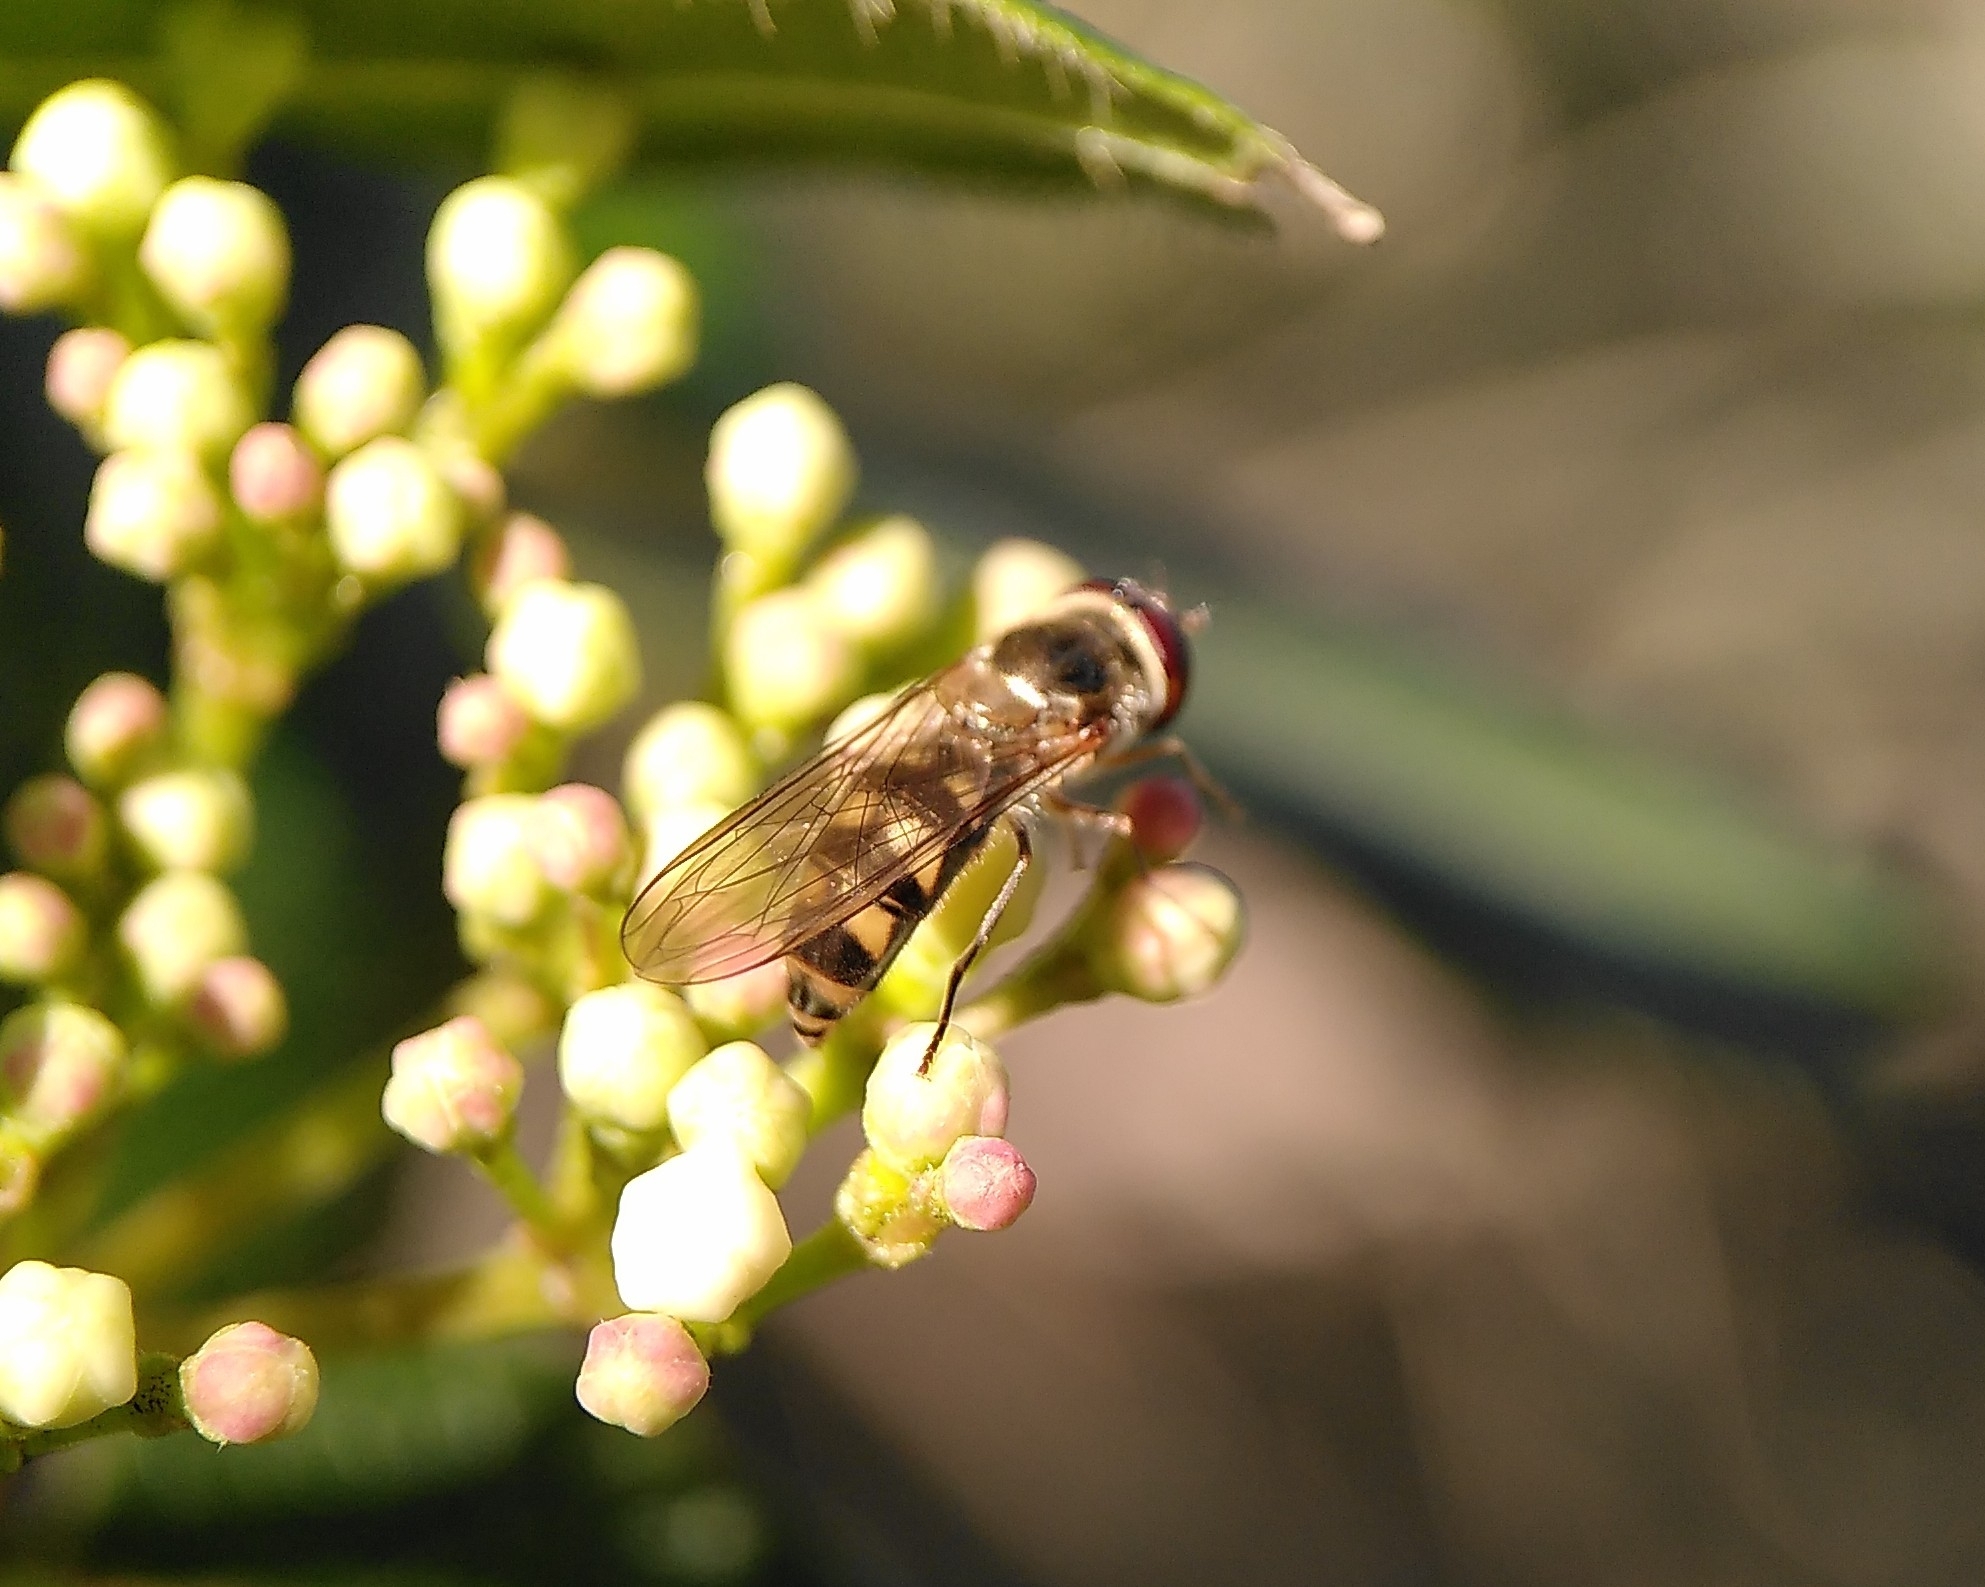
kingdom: Animalia
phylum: Arthropoda
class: Insecta
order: Diptera
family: Syrphidae
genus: Meliscaeva
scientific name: Meliscaeva auricollis
